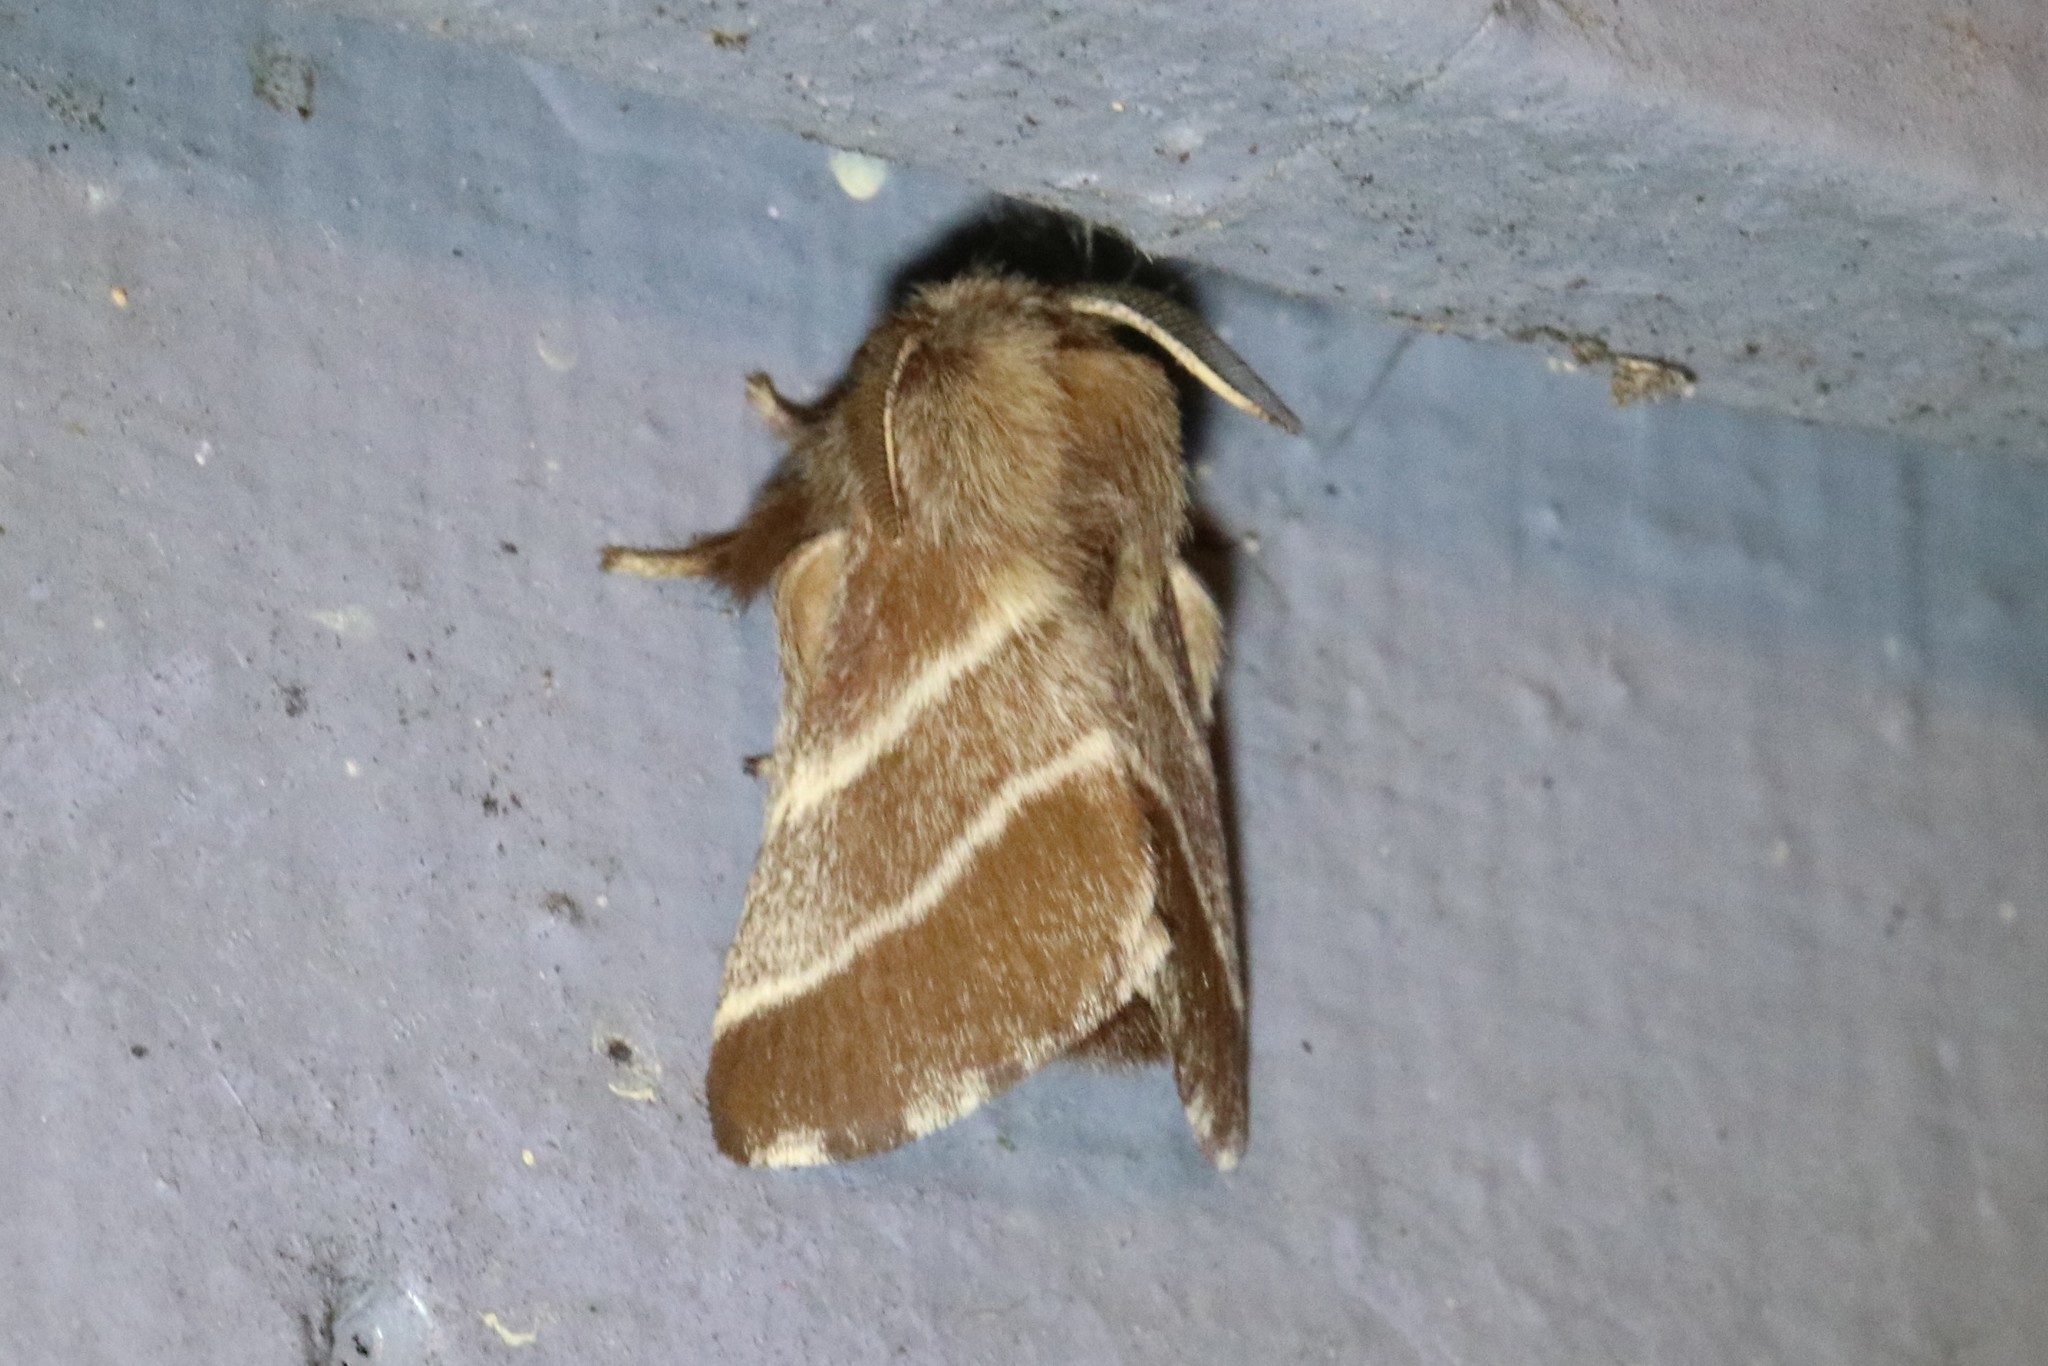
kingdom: Animalia
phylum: Arthropoda
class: Insecta
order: Lepidoptera
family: Lasiocampidae
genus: Malacosoma
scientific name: Malacosoma americana
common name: Eastern tent caterpillar moth
